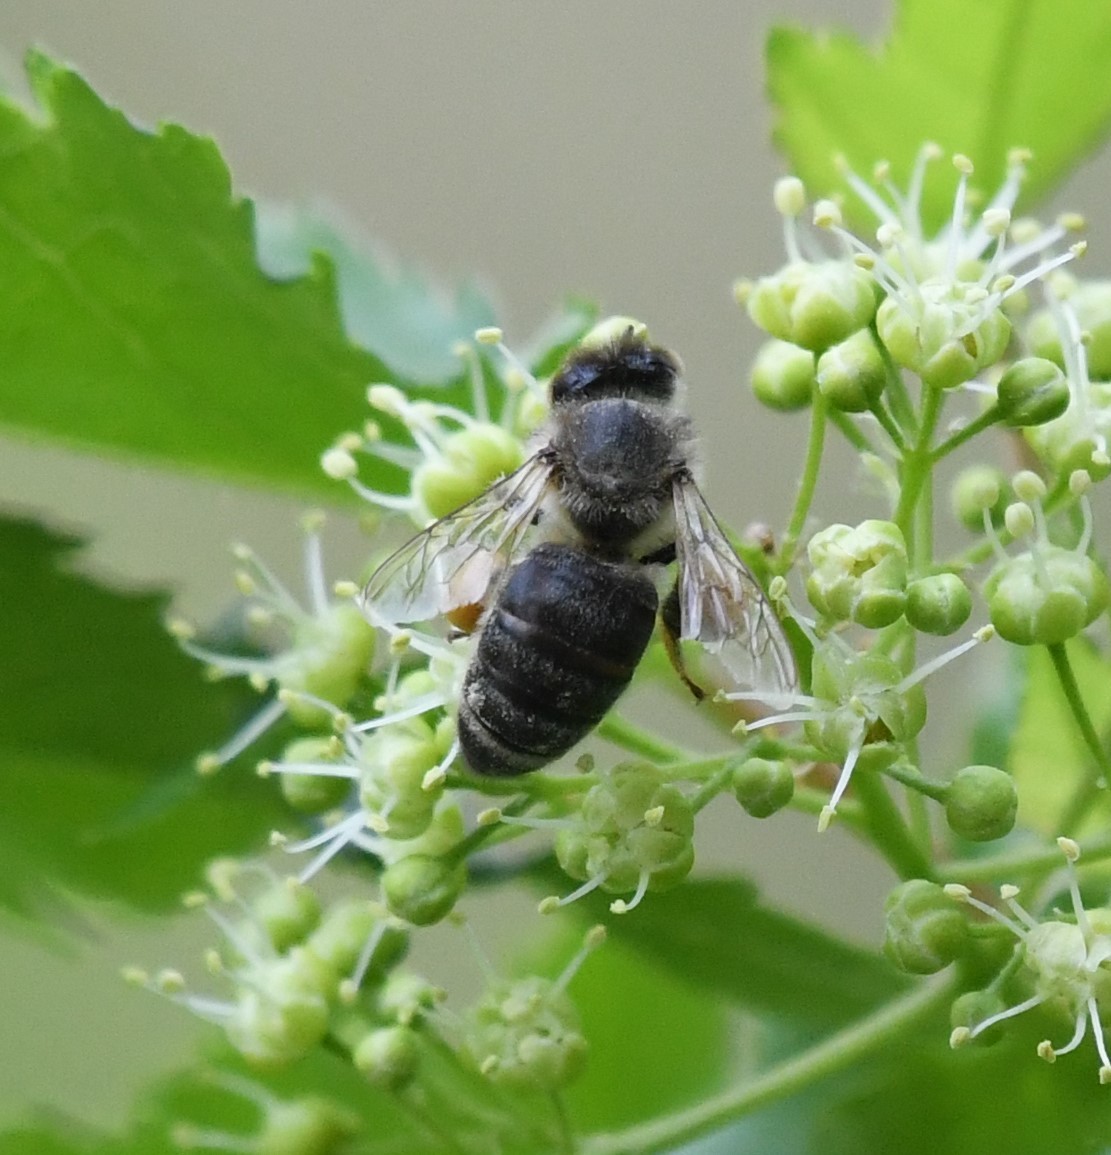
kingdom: Animalia
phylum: Arthropoda
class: Insecta
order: Hymenoptera
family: Apidae
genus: Apis
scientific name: Apis mellifera
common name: Honey bee
